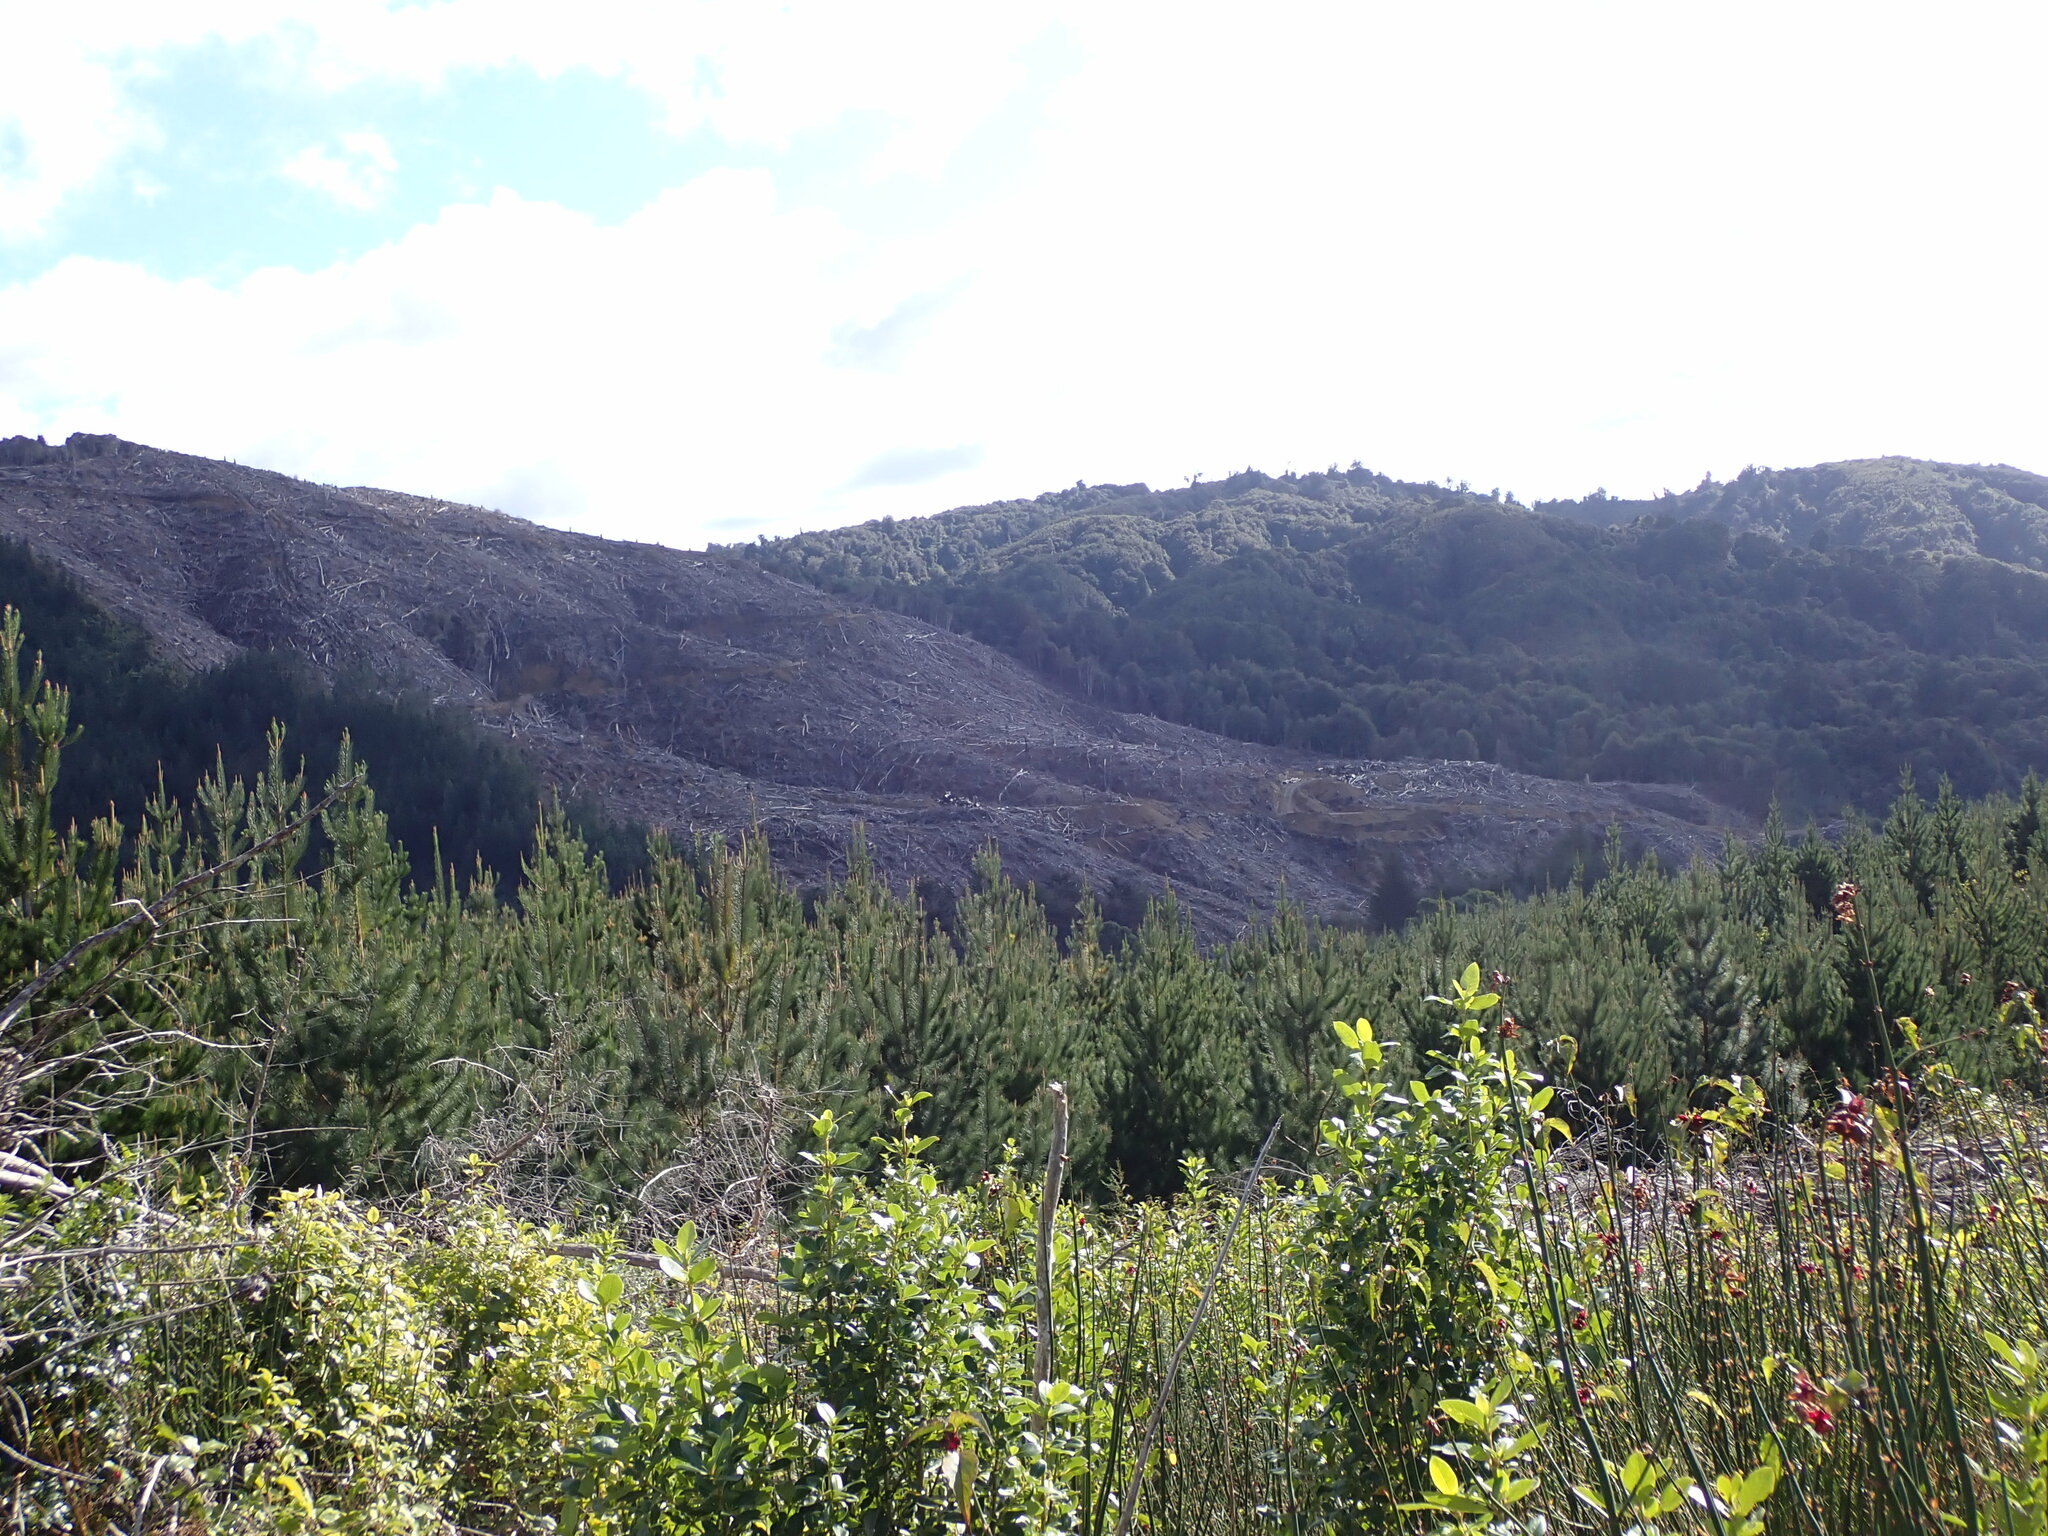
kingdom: Plantae
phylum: Tracheophyta
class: Pinopsida
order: Pinales
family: Pinaceae
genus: Pinus
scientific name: Pinus radiata
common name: Monterey pine
